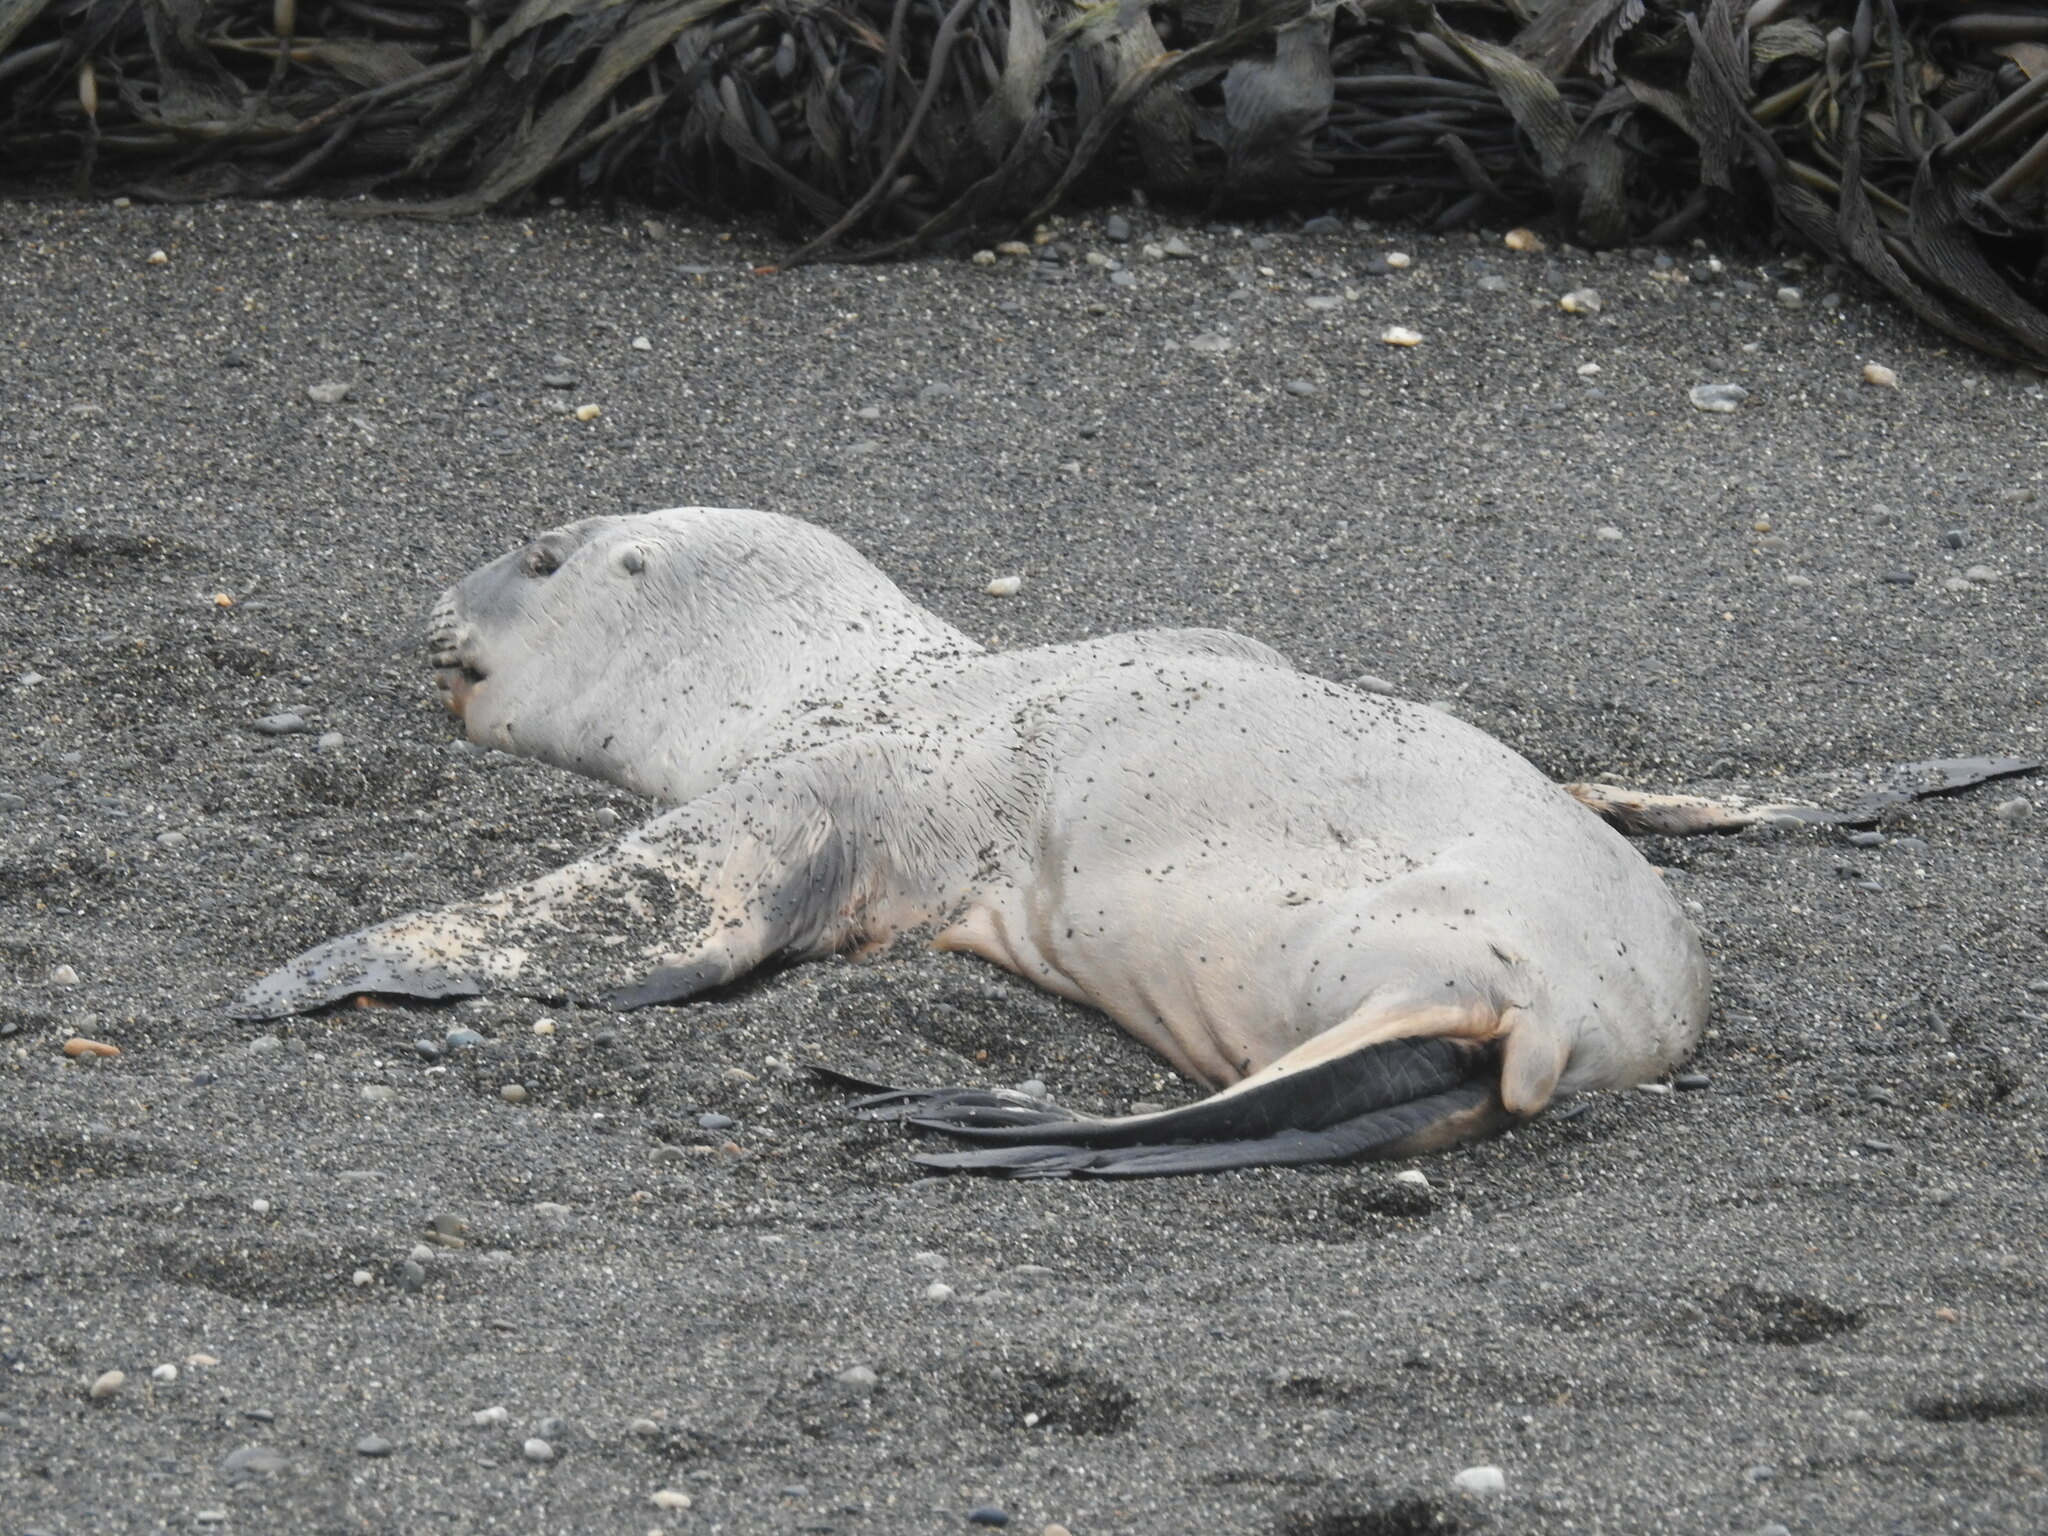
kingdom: Animalia
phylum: Chordata
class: Mammalia
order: Carnivora
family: Otariidae
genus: Otaria
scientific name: Otaria byronia
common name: South american sea lion
